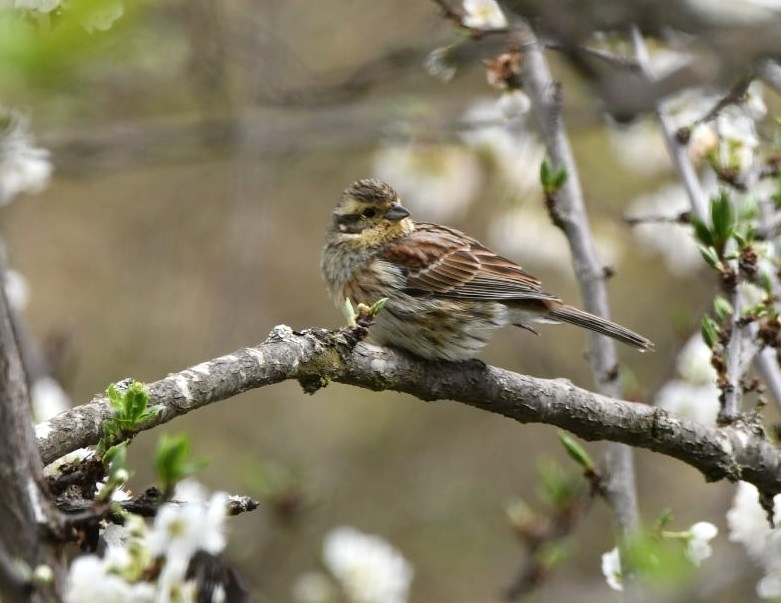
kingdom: Animalia
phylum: Chordata
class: Aves
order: Passeriformes
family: Emberizidae
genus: Emberiza
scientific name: Emberiza cirlus
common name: Cirl bunting
